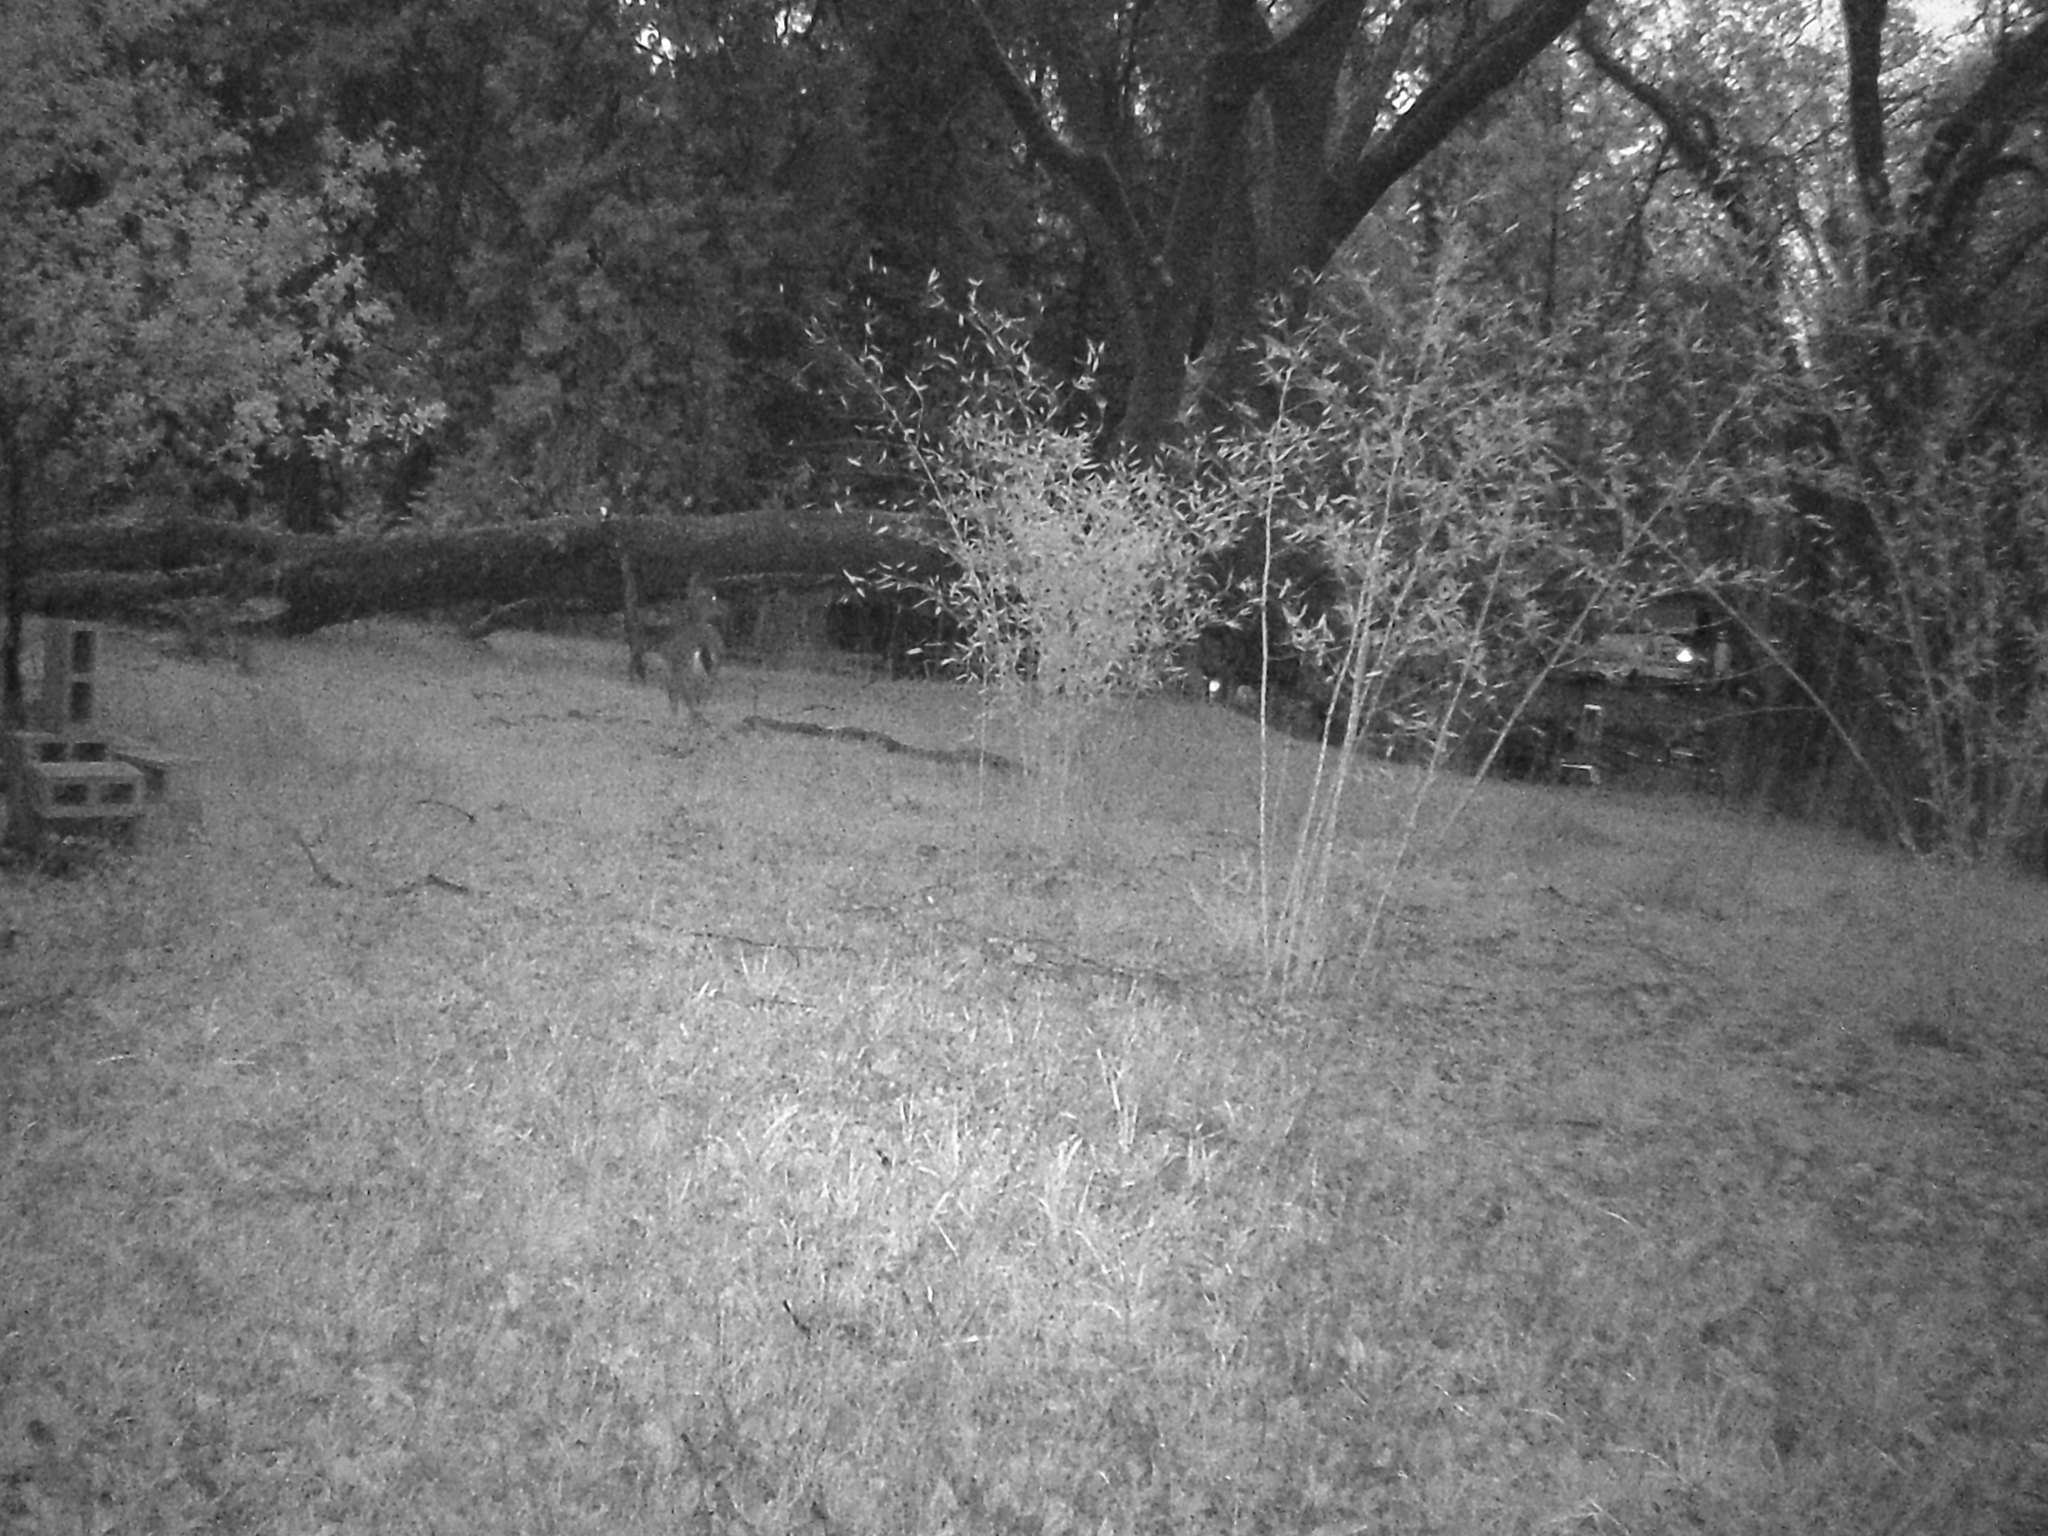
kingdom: Animalia
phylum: Chordata
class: Mammalia
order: Artiodactyla
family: Cervidae
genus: Odocoileus
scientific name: Odocoileus hemionus
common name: Mule deer
